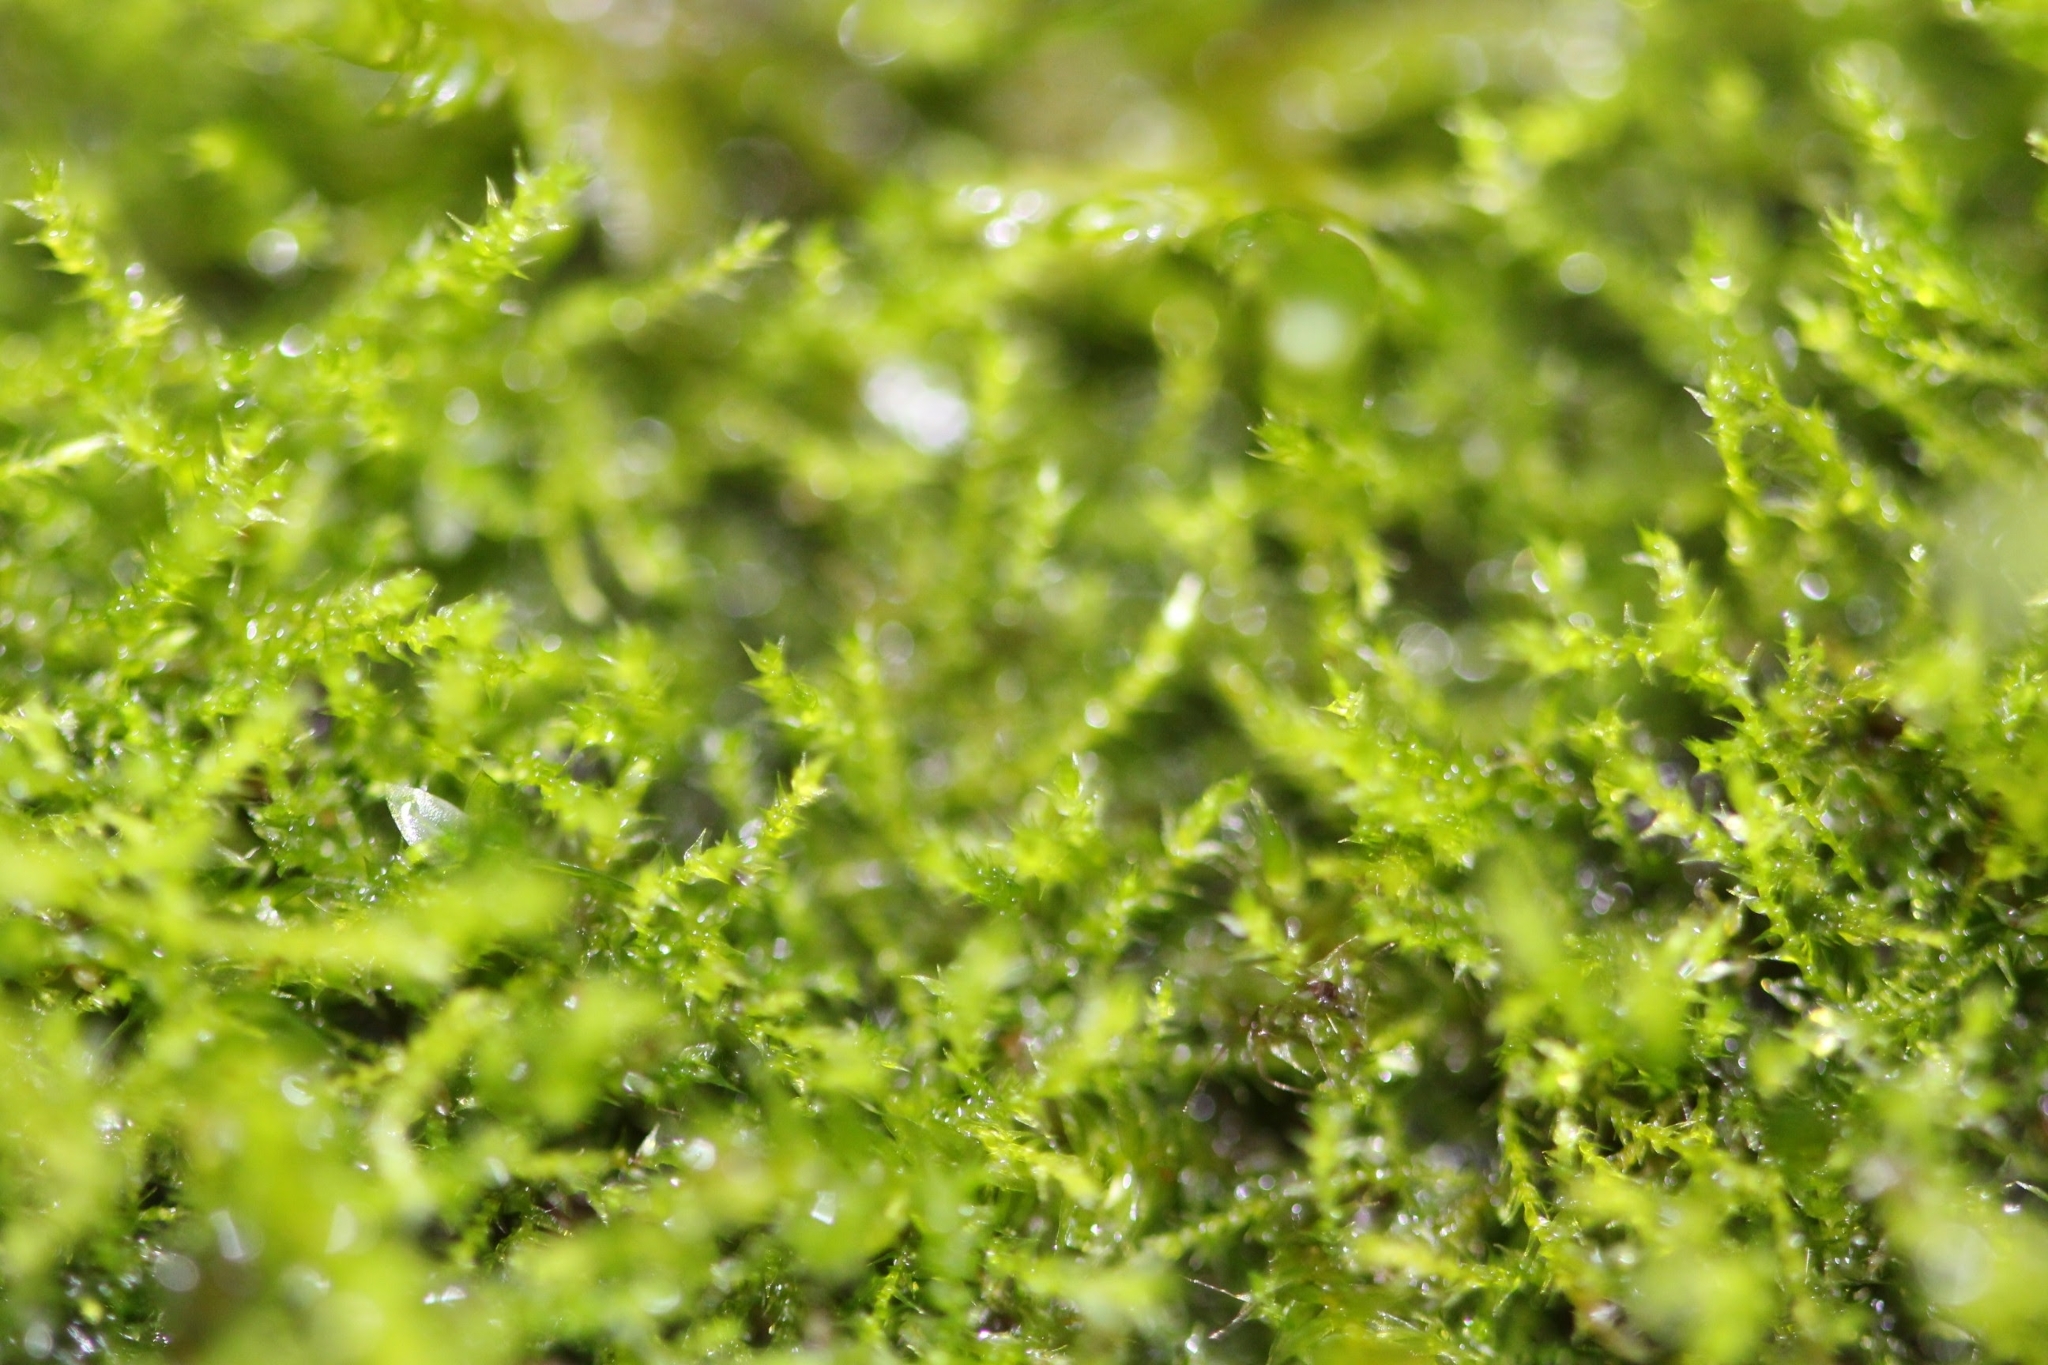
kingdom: Plantae
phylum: Bryophyta
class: Bryopsida
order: Hypnales
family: Amblystegiaceae
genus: Amblystegium
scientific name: Amblystegium serpens
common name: Jurkatzka's feather moss
